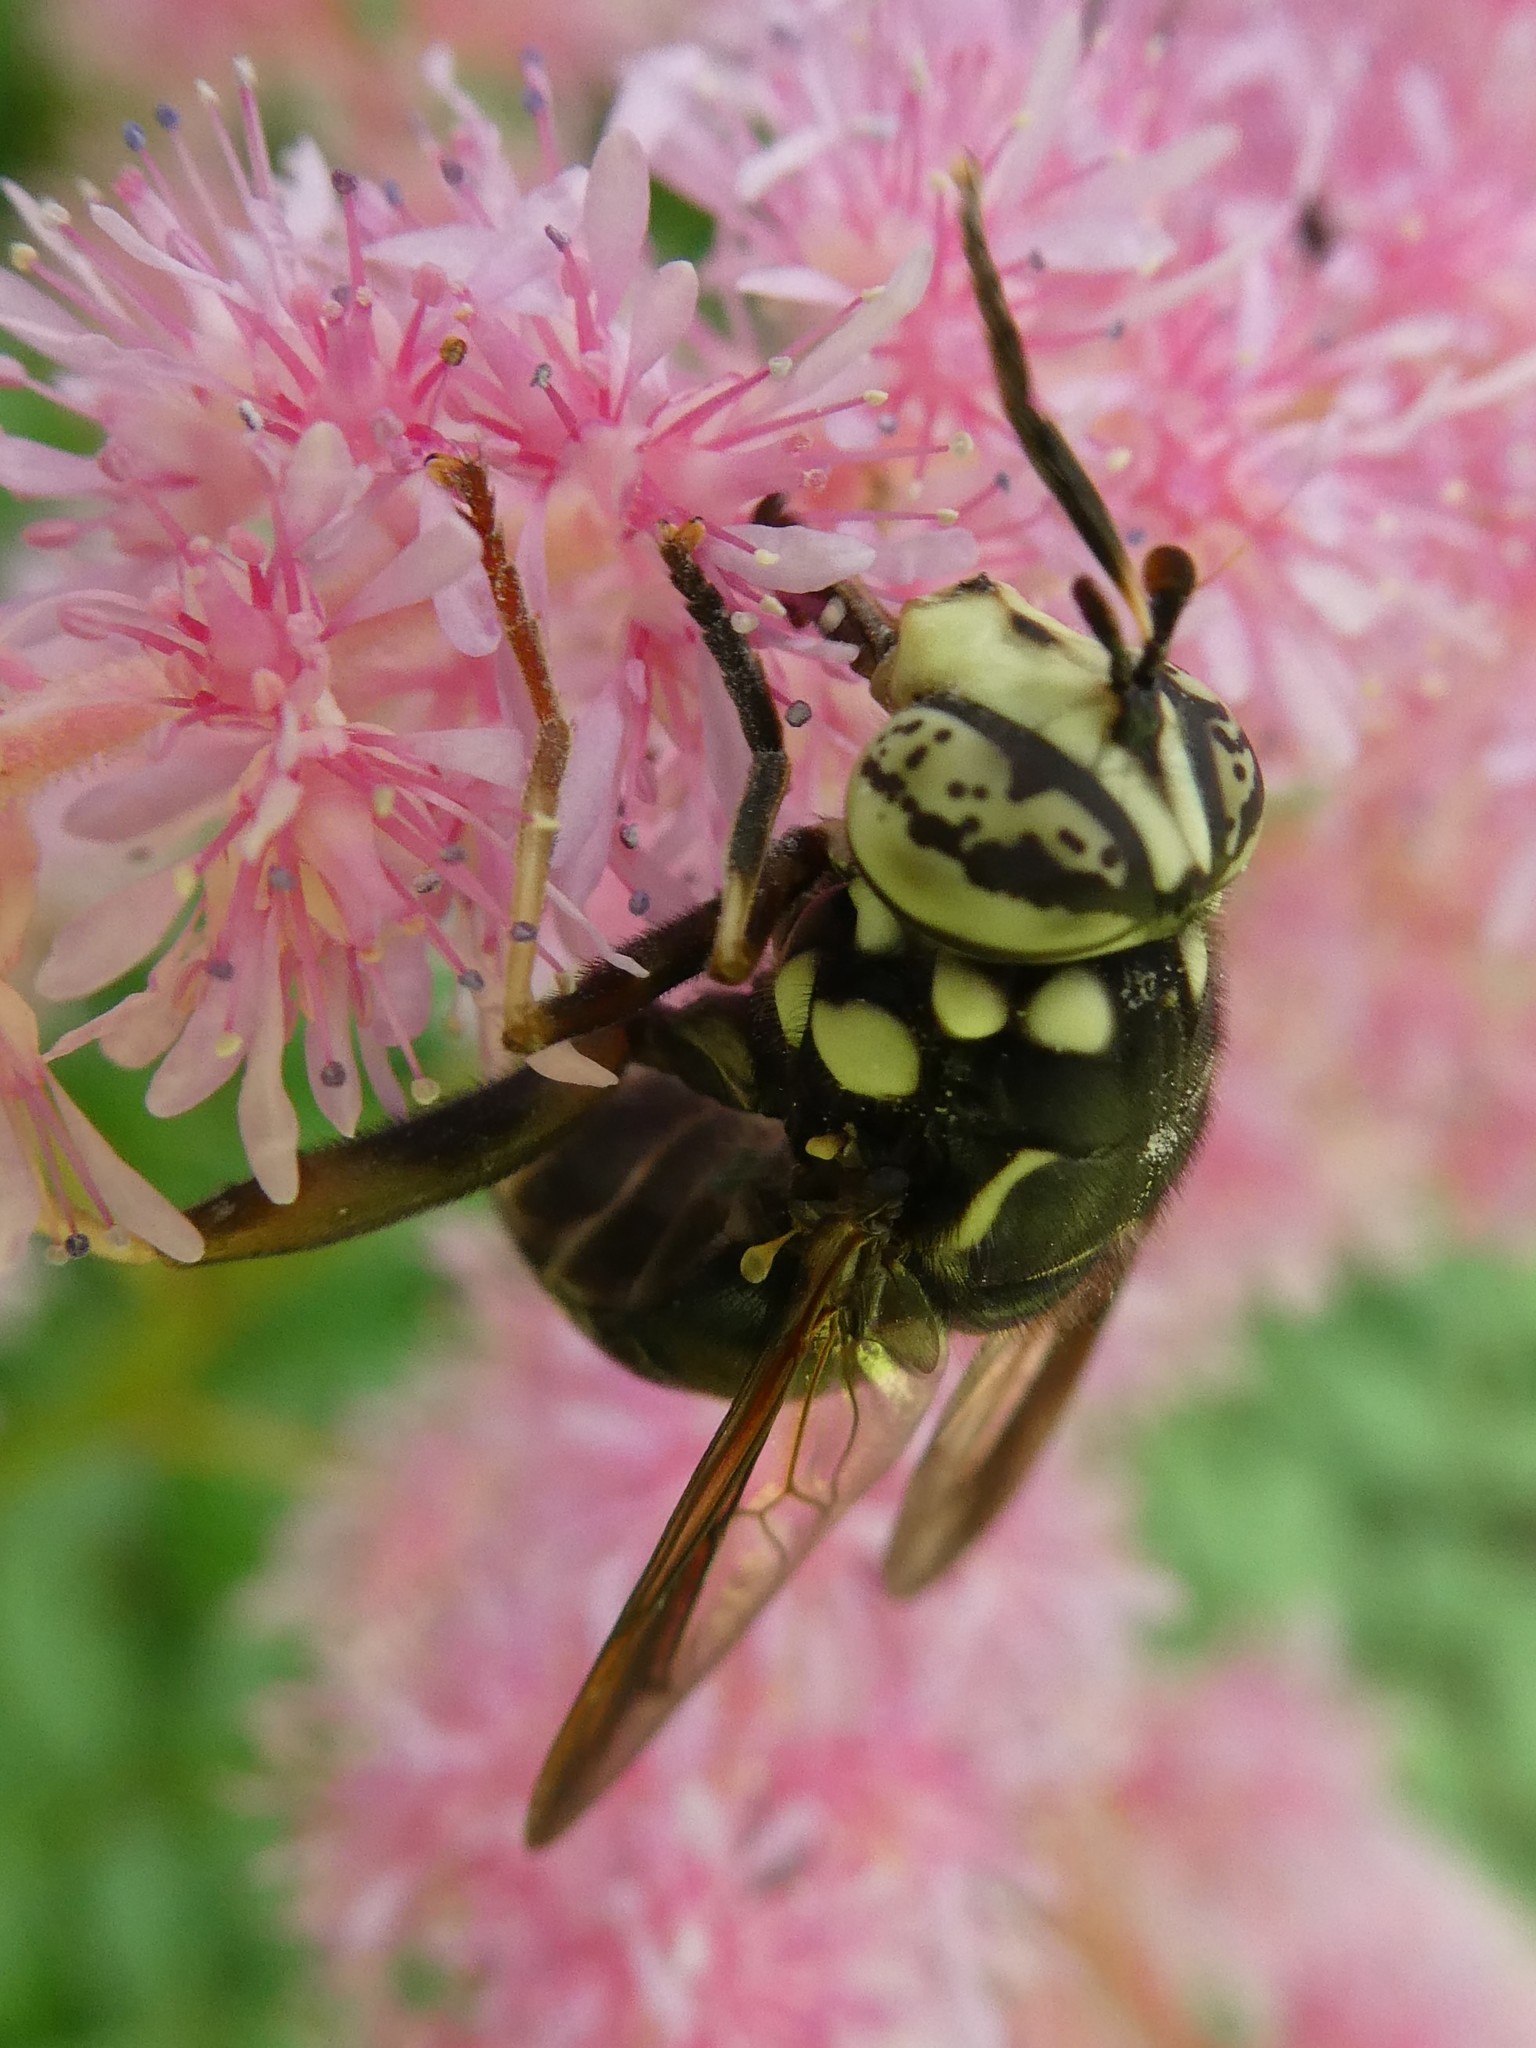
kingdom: Animalia
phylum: Arthropoda
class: Insecta
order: Diptera
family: Syrphidae
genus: Spilomyia
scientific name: Spilomyia fusca
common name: Bald-faced hornet fly
